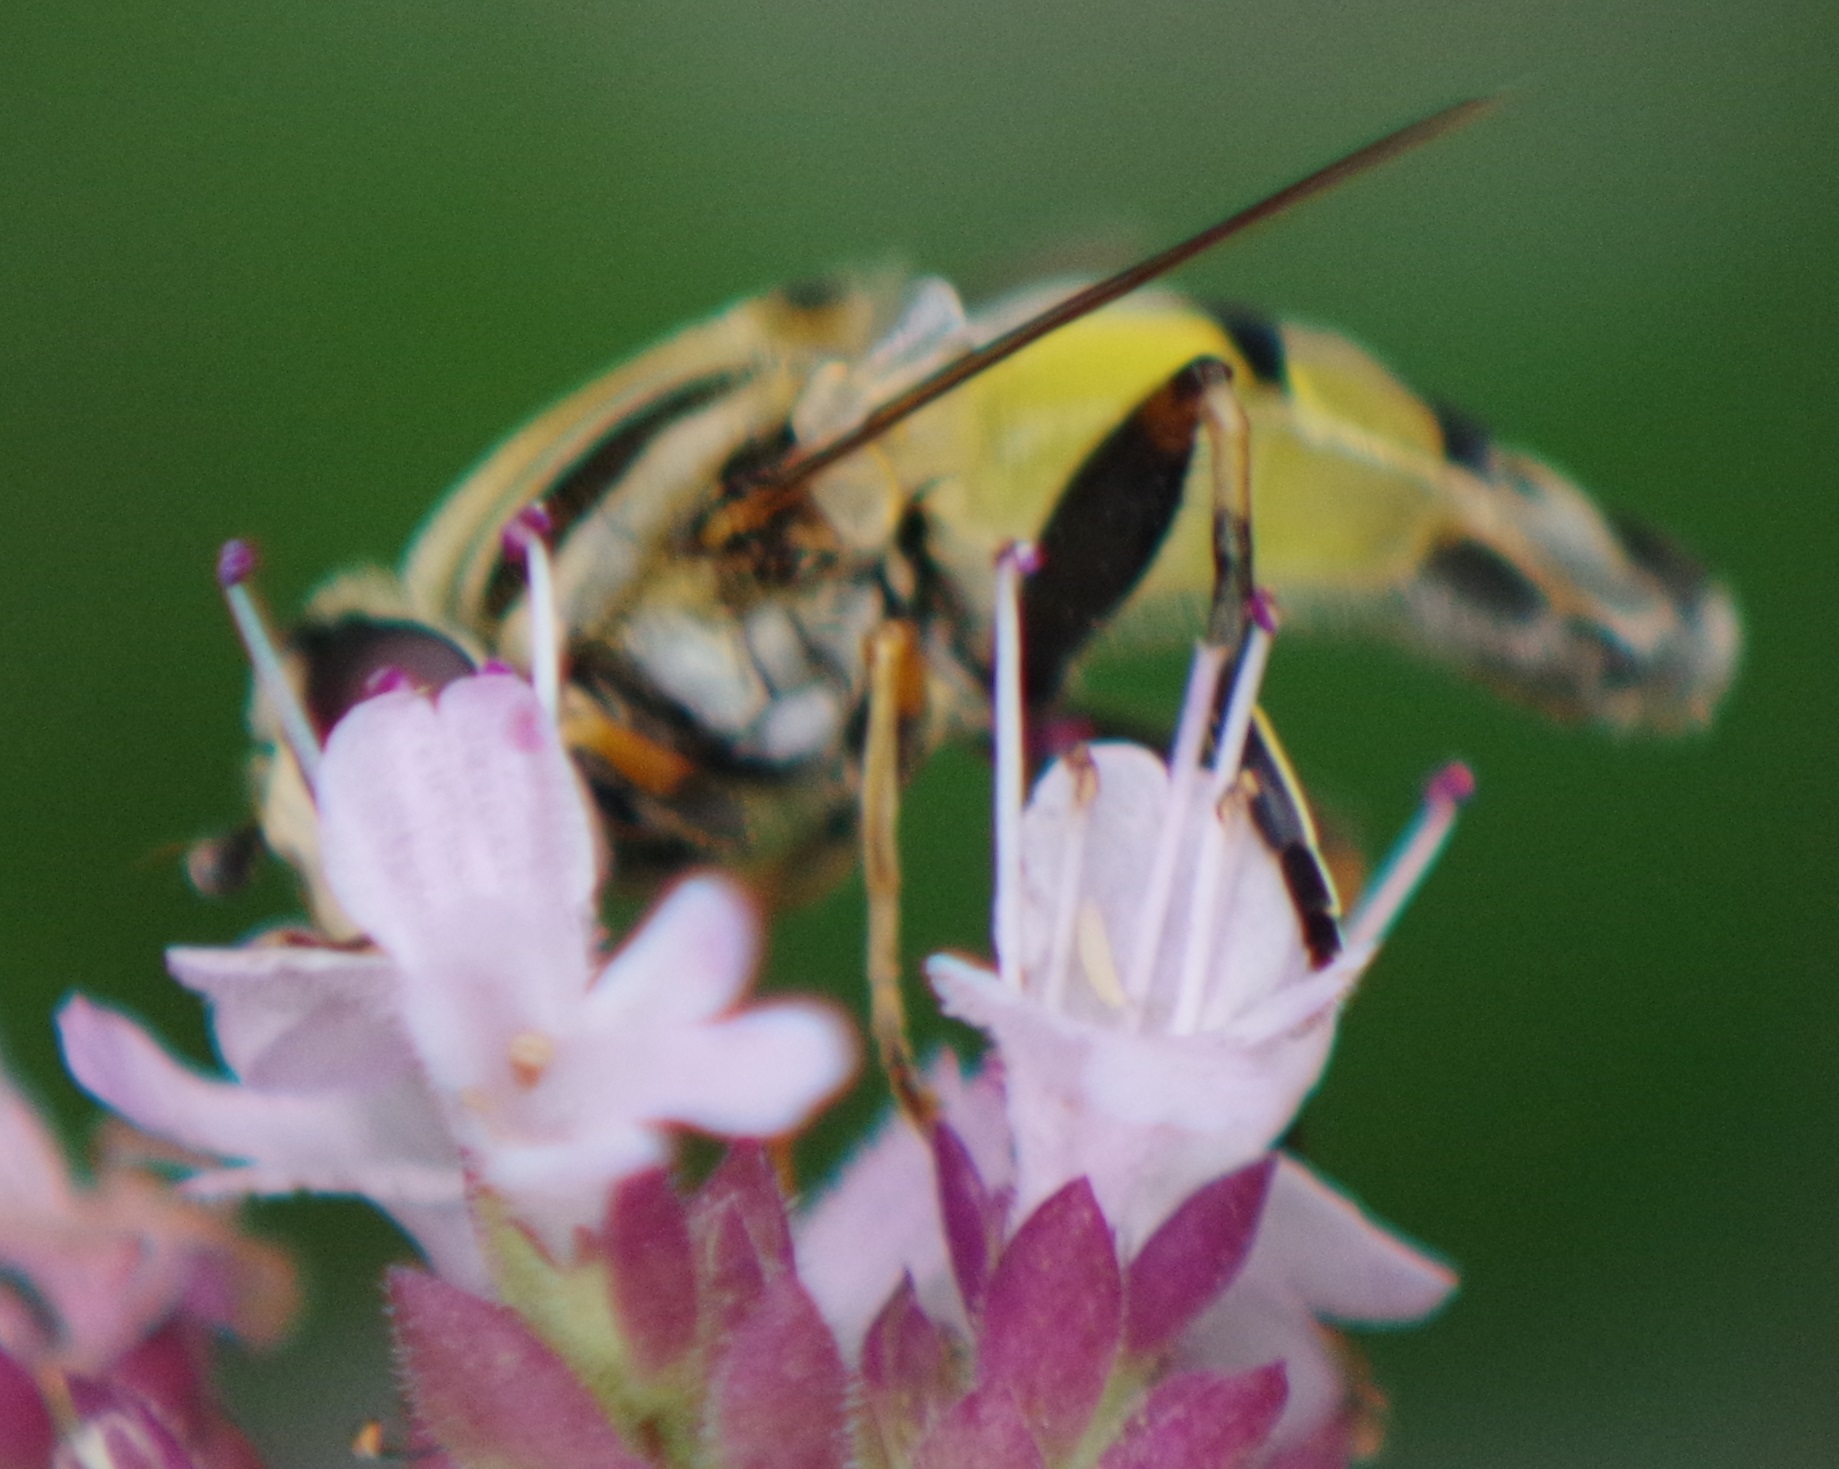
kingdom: Animalia
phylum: Arthropoda
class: Insecta
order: Diptera
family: Syrphidae
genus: Helophilus
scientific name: Helophilus trivittatus
